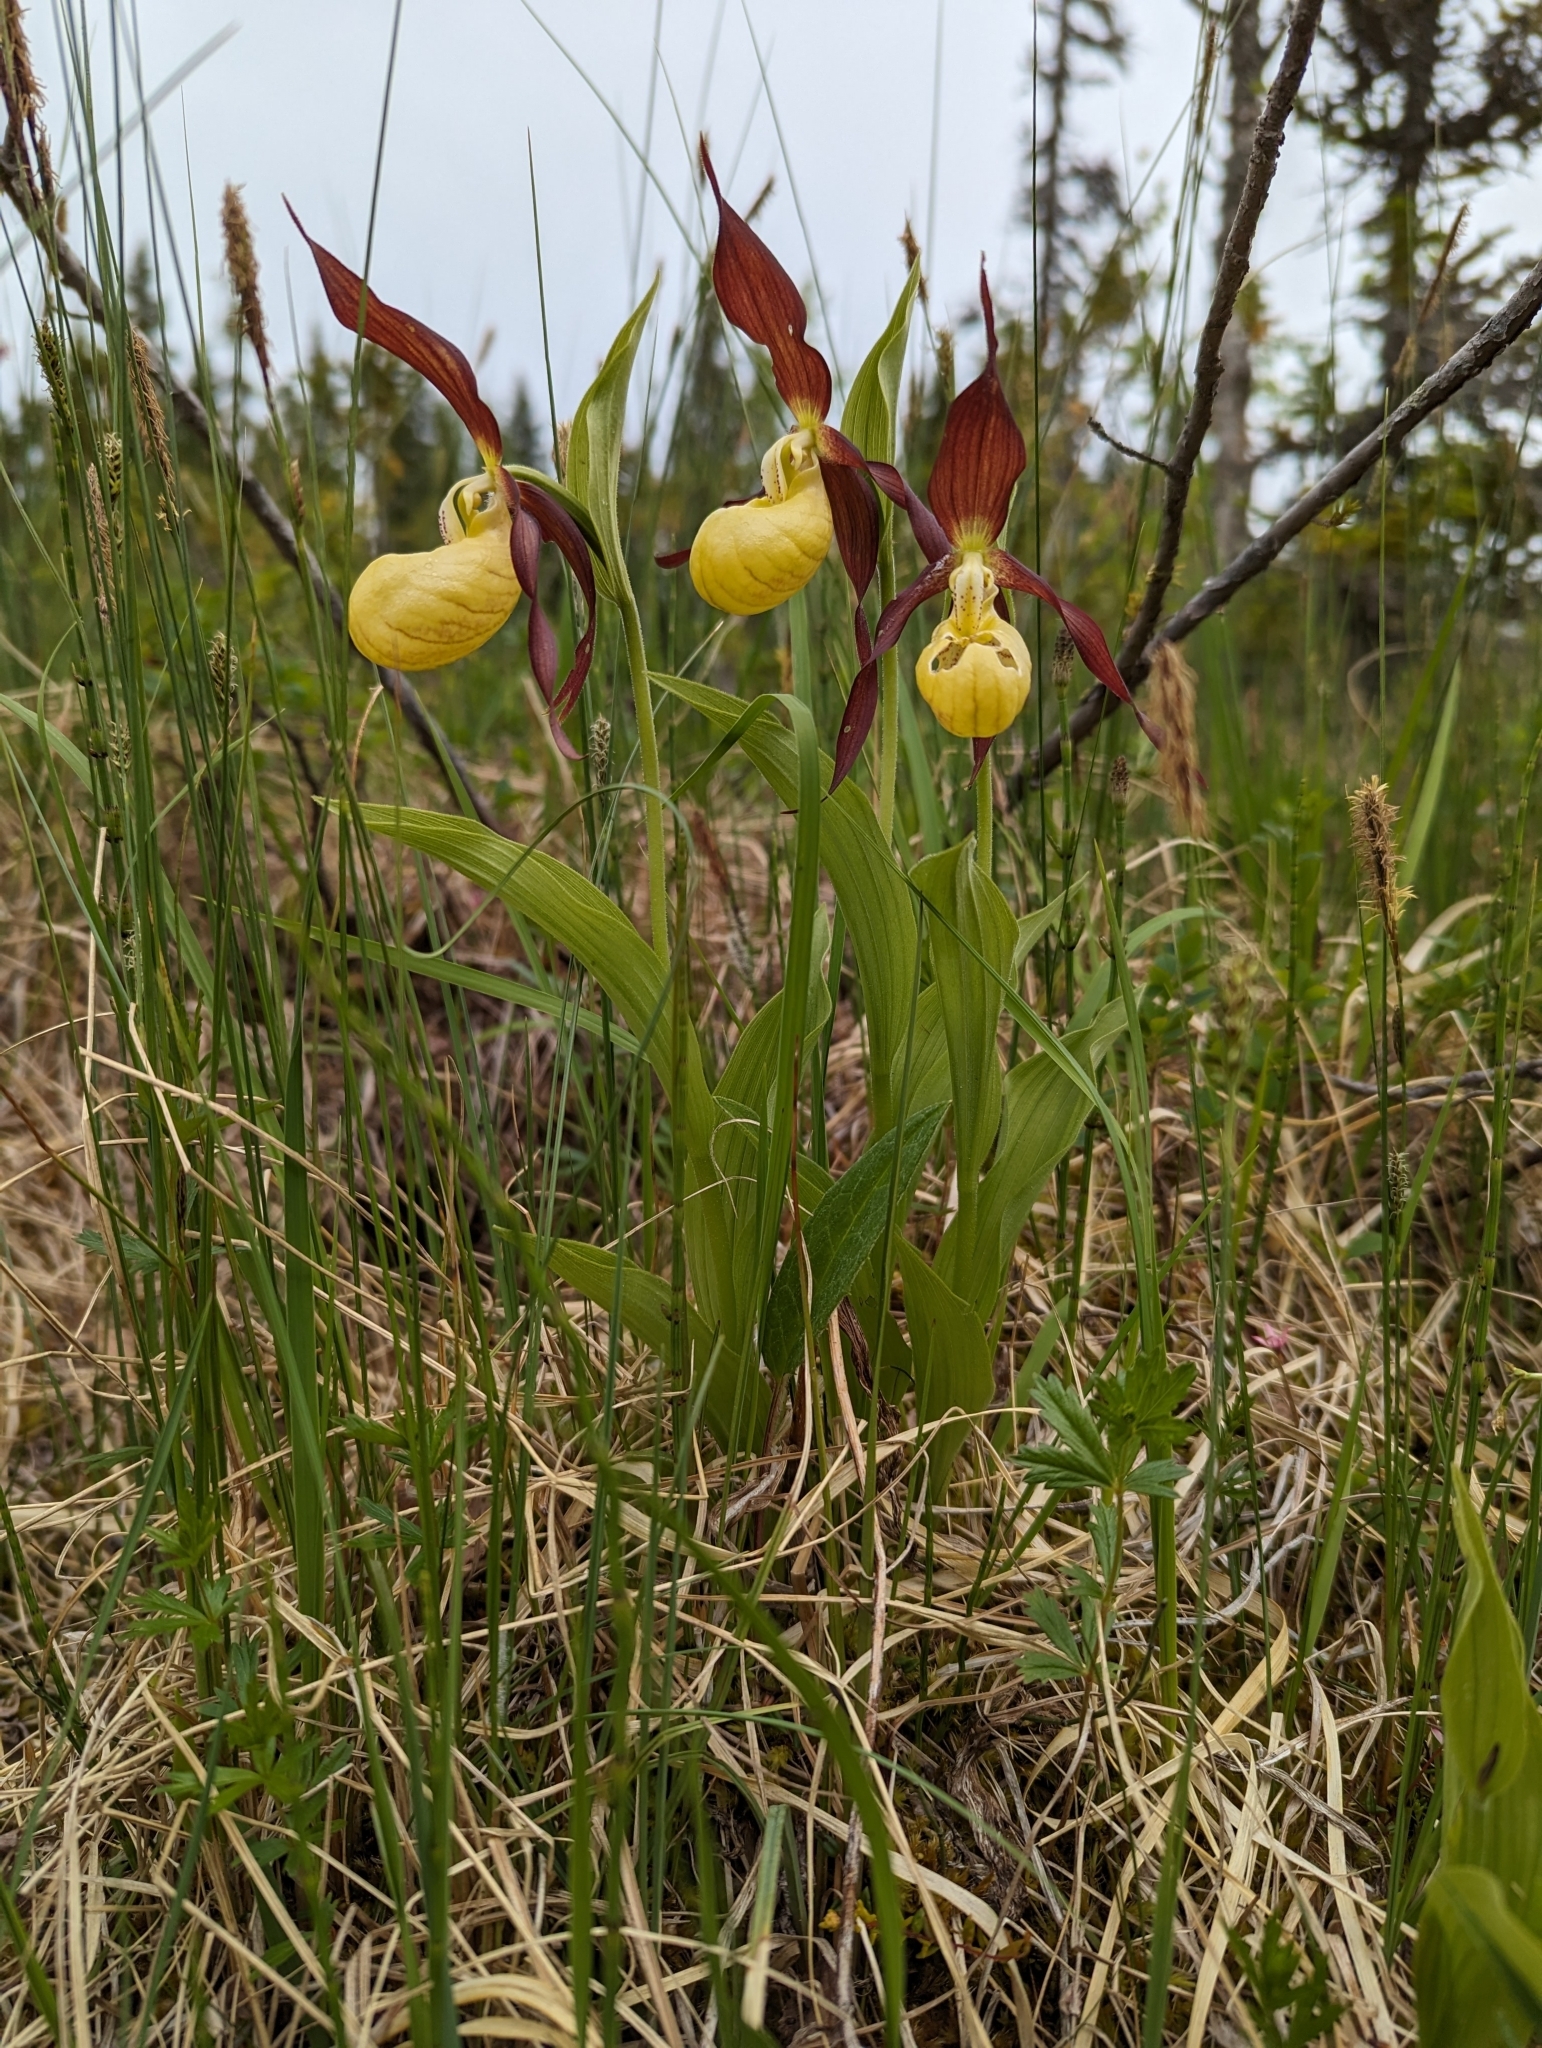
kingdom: Plantae
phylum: Tracheophyta
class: Liliopsida
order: Asparagales
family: Orchidaceae
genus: Cypripedium
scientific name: Cypripedium calceolus
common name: Lady's-slipper
